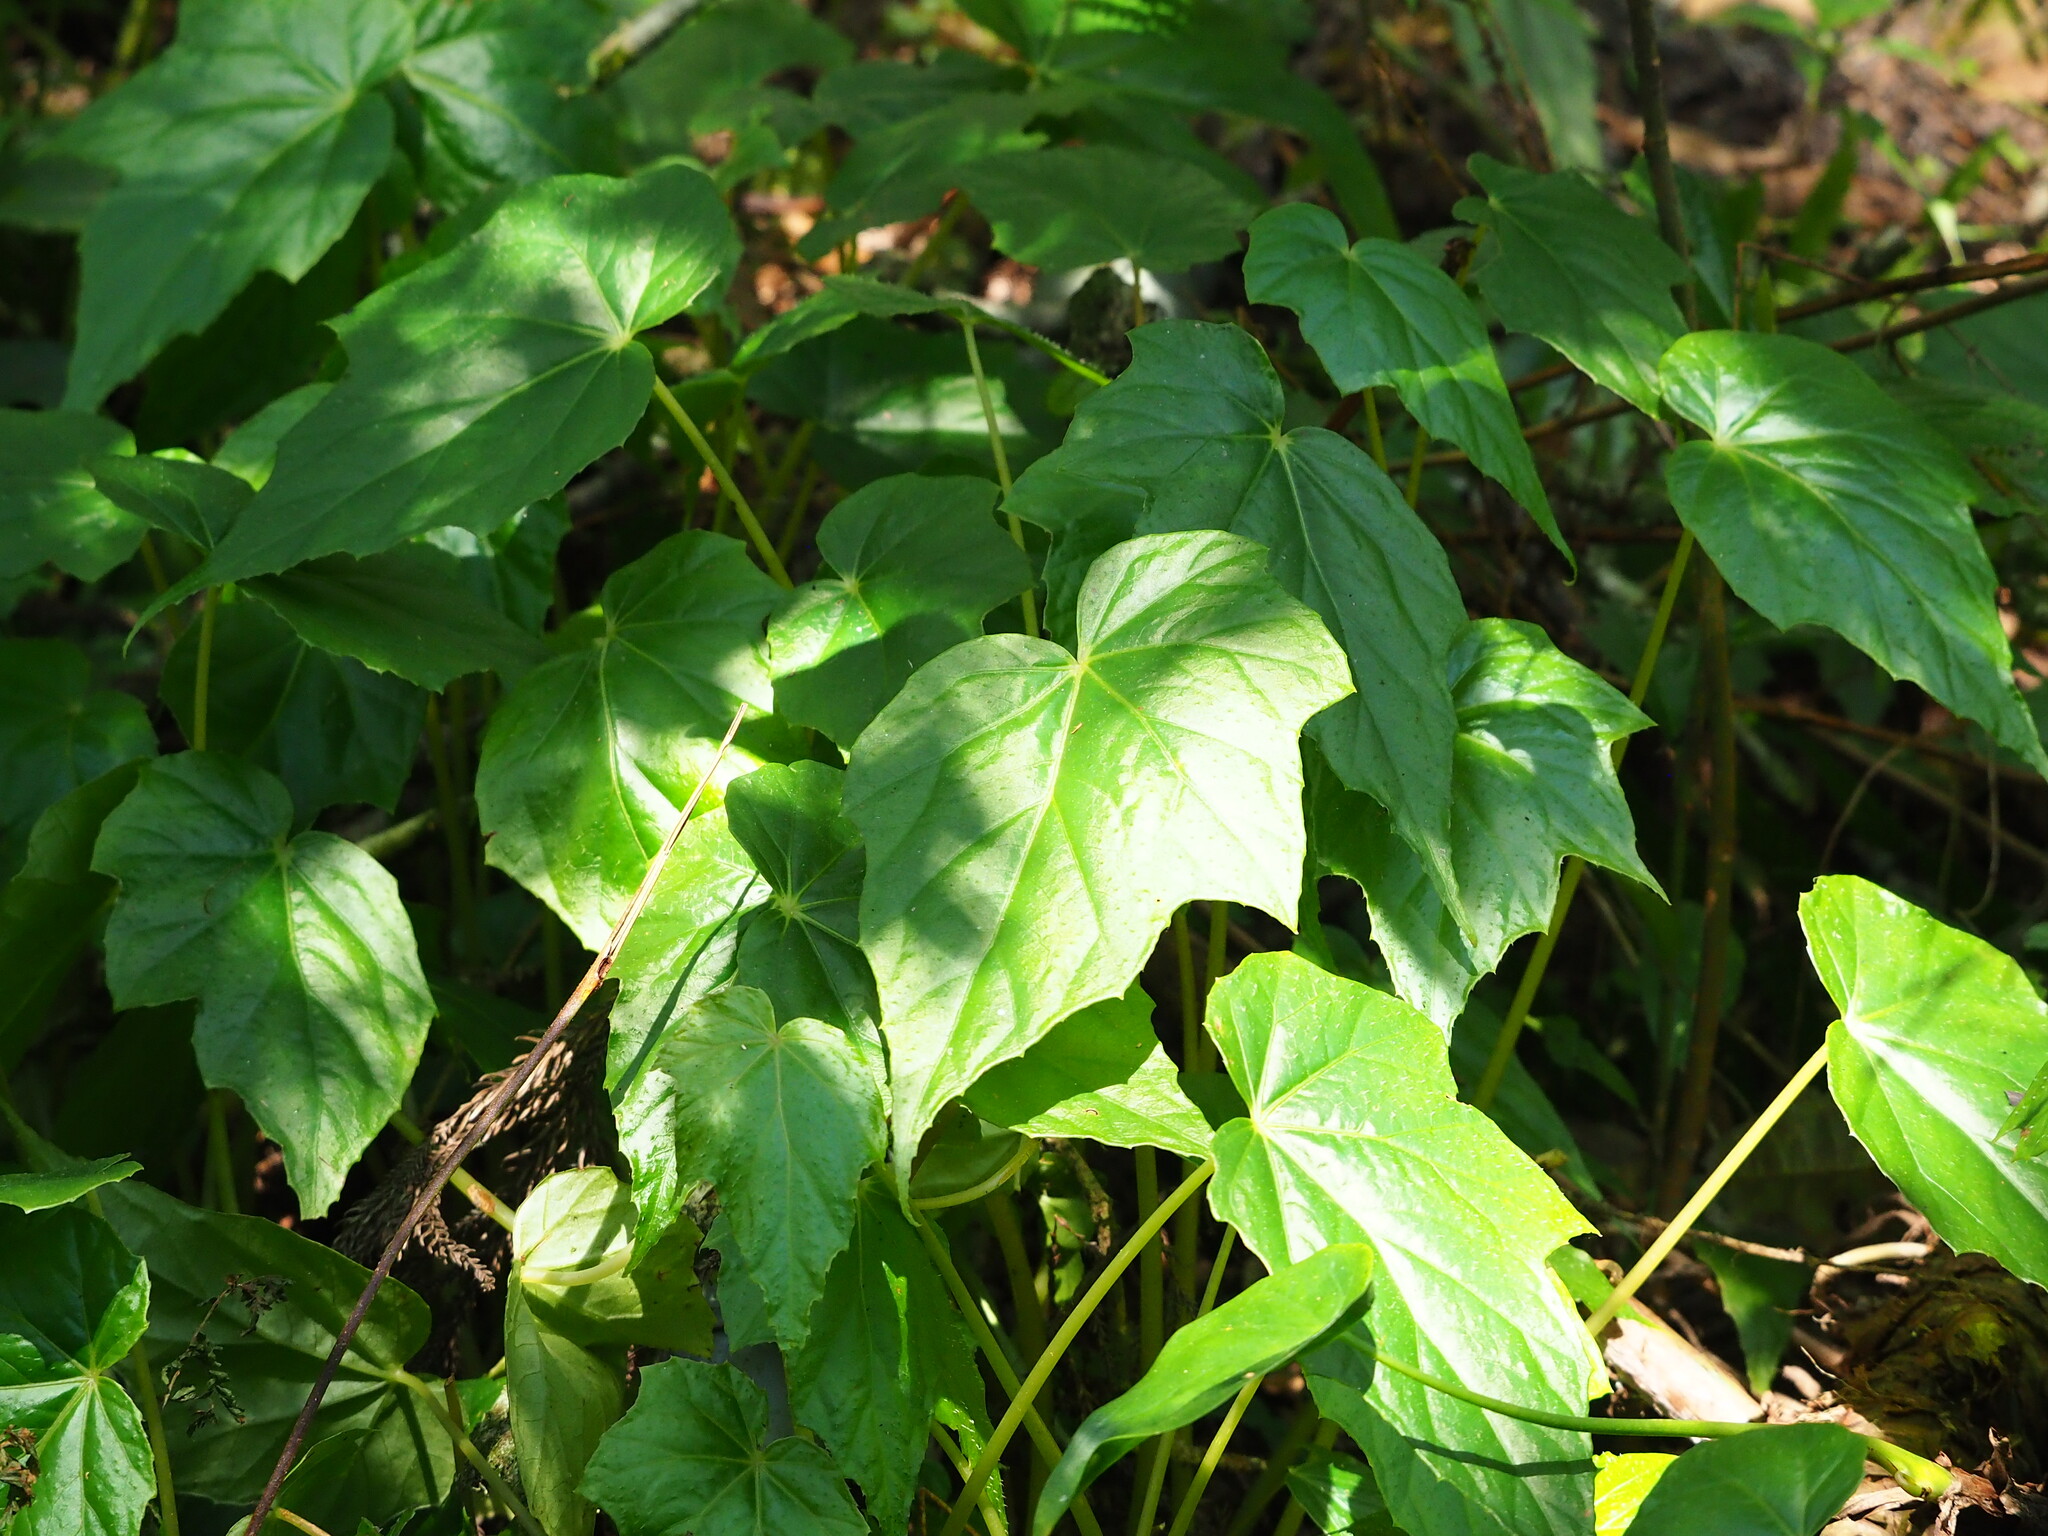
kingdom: Plantae
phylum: Tracheophyta
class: Magnoliopsida
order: Cucurbitales
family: Begoniaceae
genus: Begonia
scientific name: Begonia formosana
